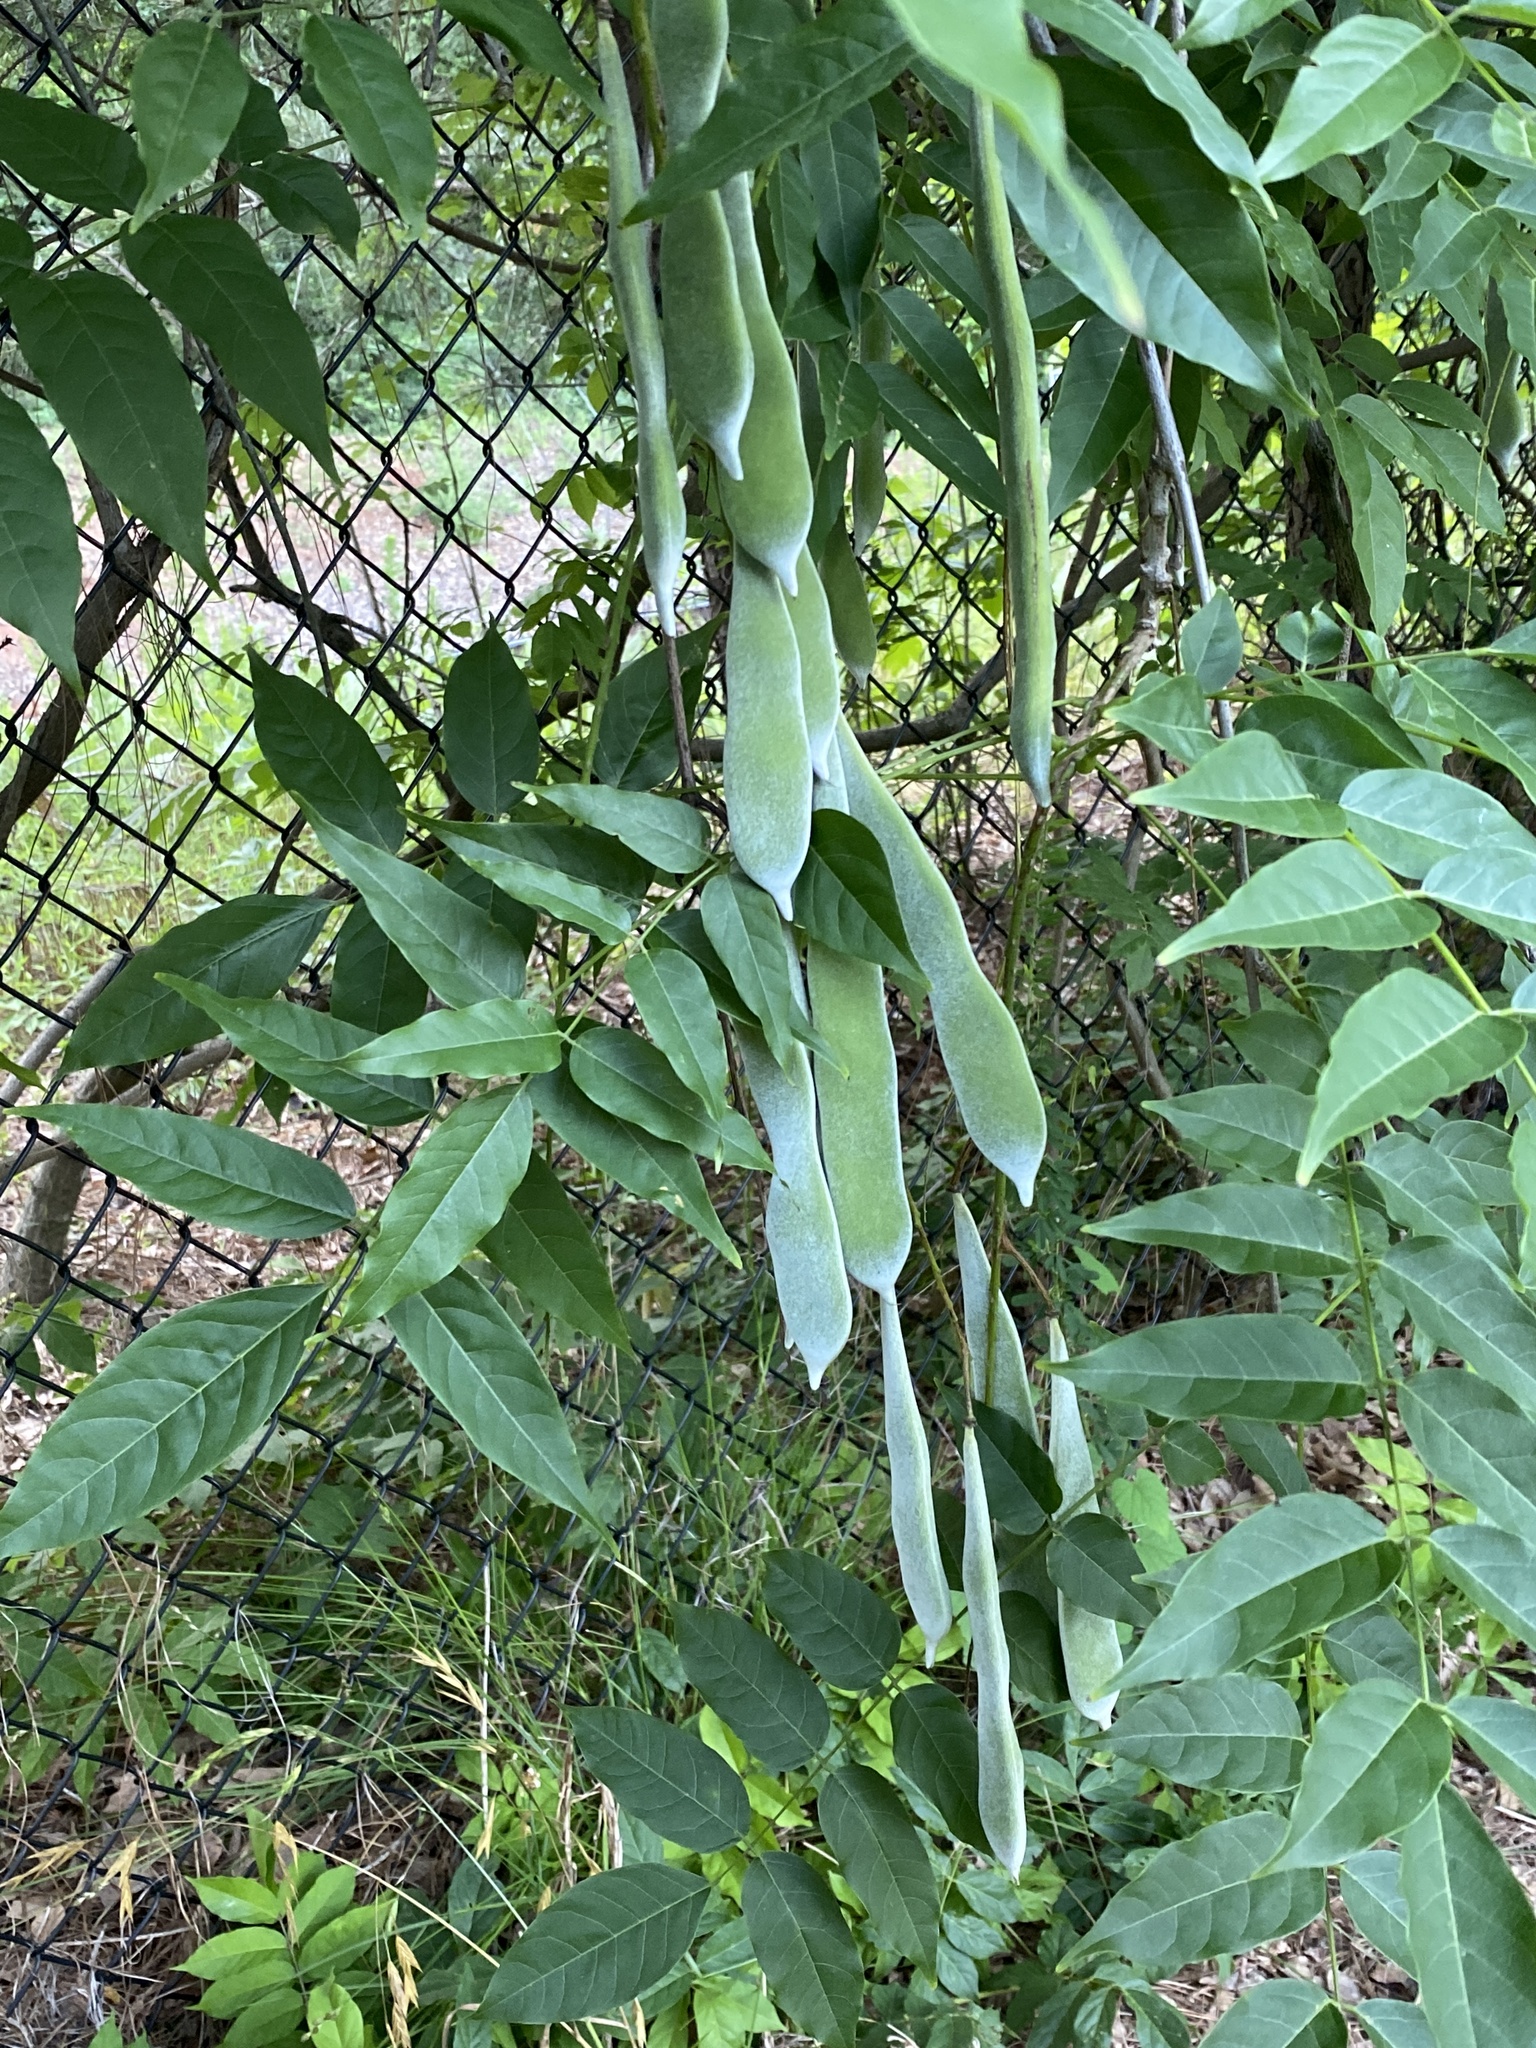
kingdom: Plantae
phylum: Tracheophyta
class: Magnoliopsida
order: Fabales
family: Fabaceae
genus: Wisteria
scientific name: Wisteria sinensis
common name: Chinese wisteria
